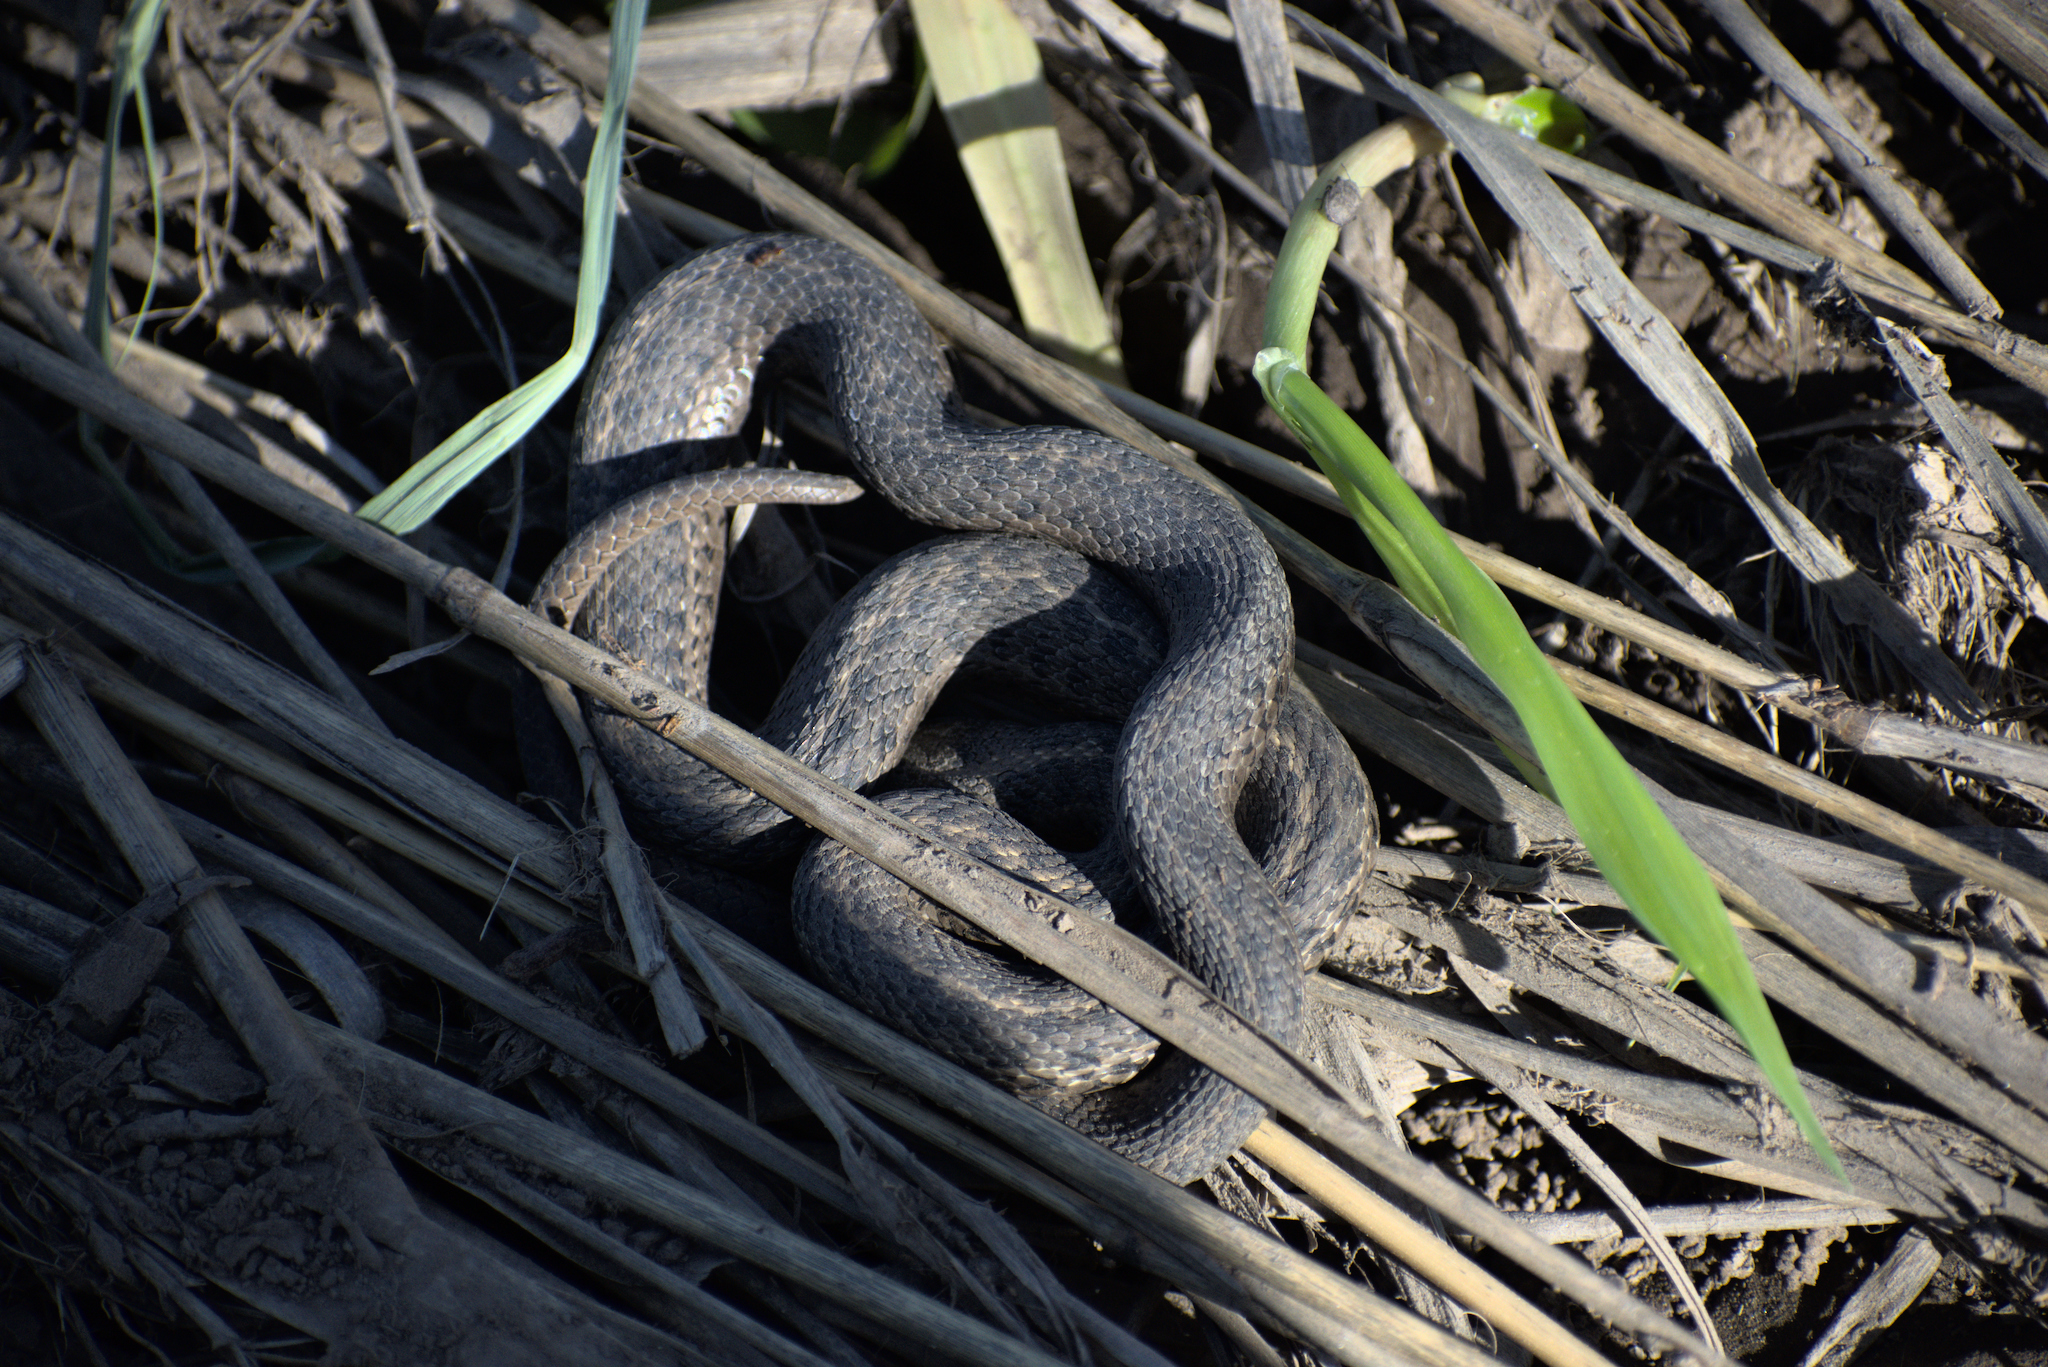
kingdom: Animalia
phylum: Chordata
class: Squamata
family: Colubridae
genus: Thamnophis
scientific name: Thamnophis elegans
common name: Western terrestrial garter snake
